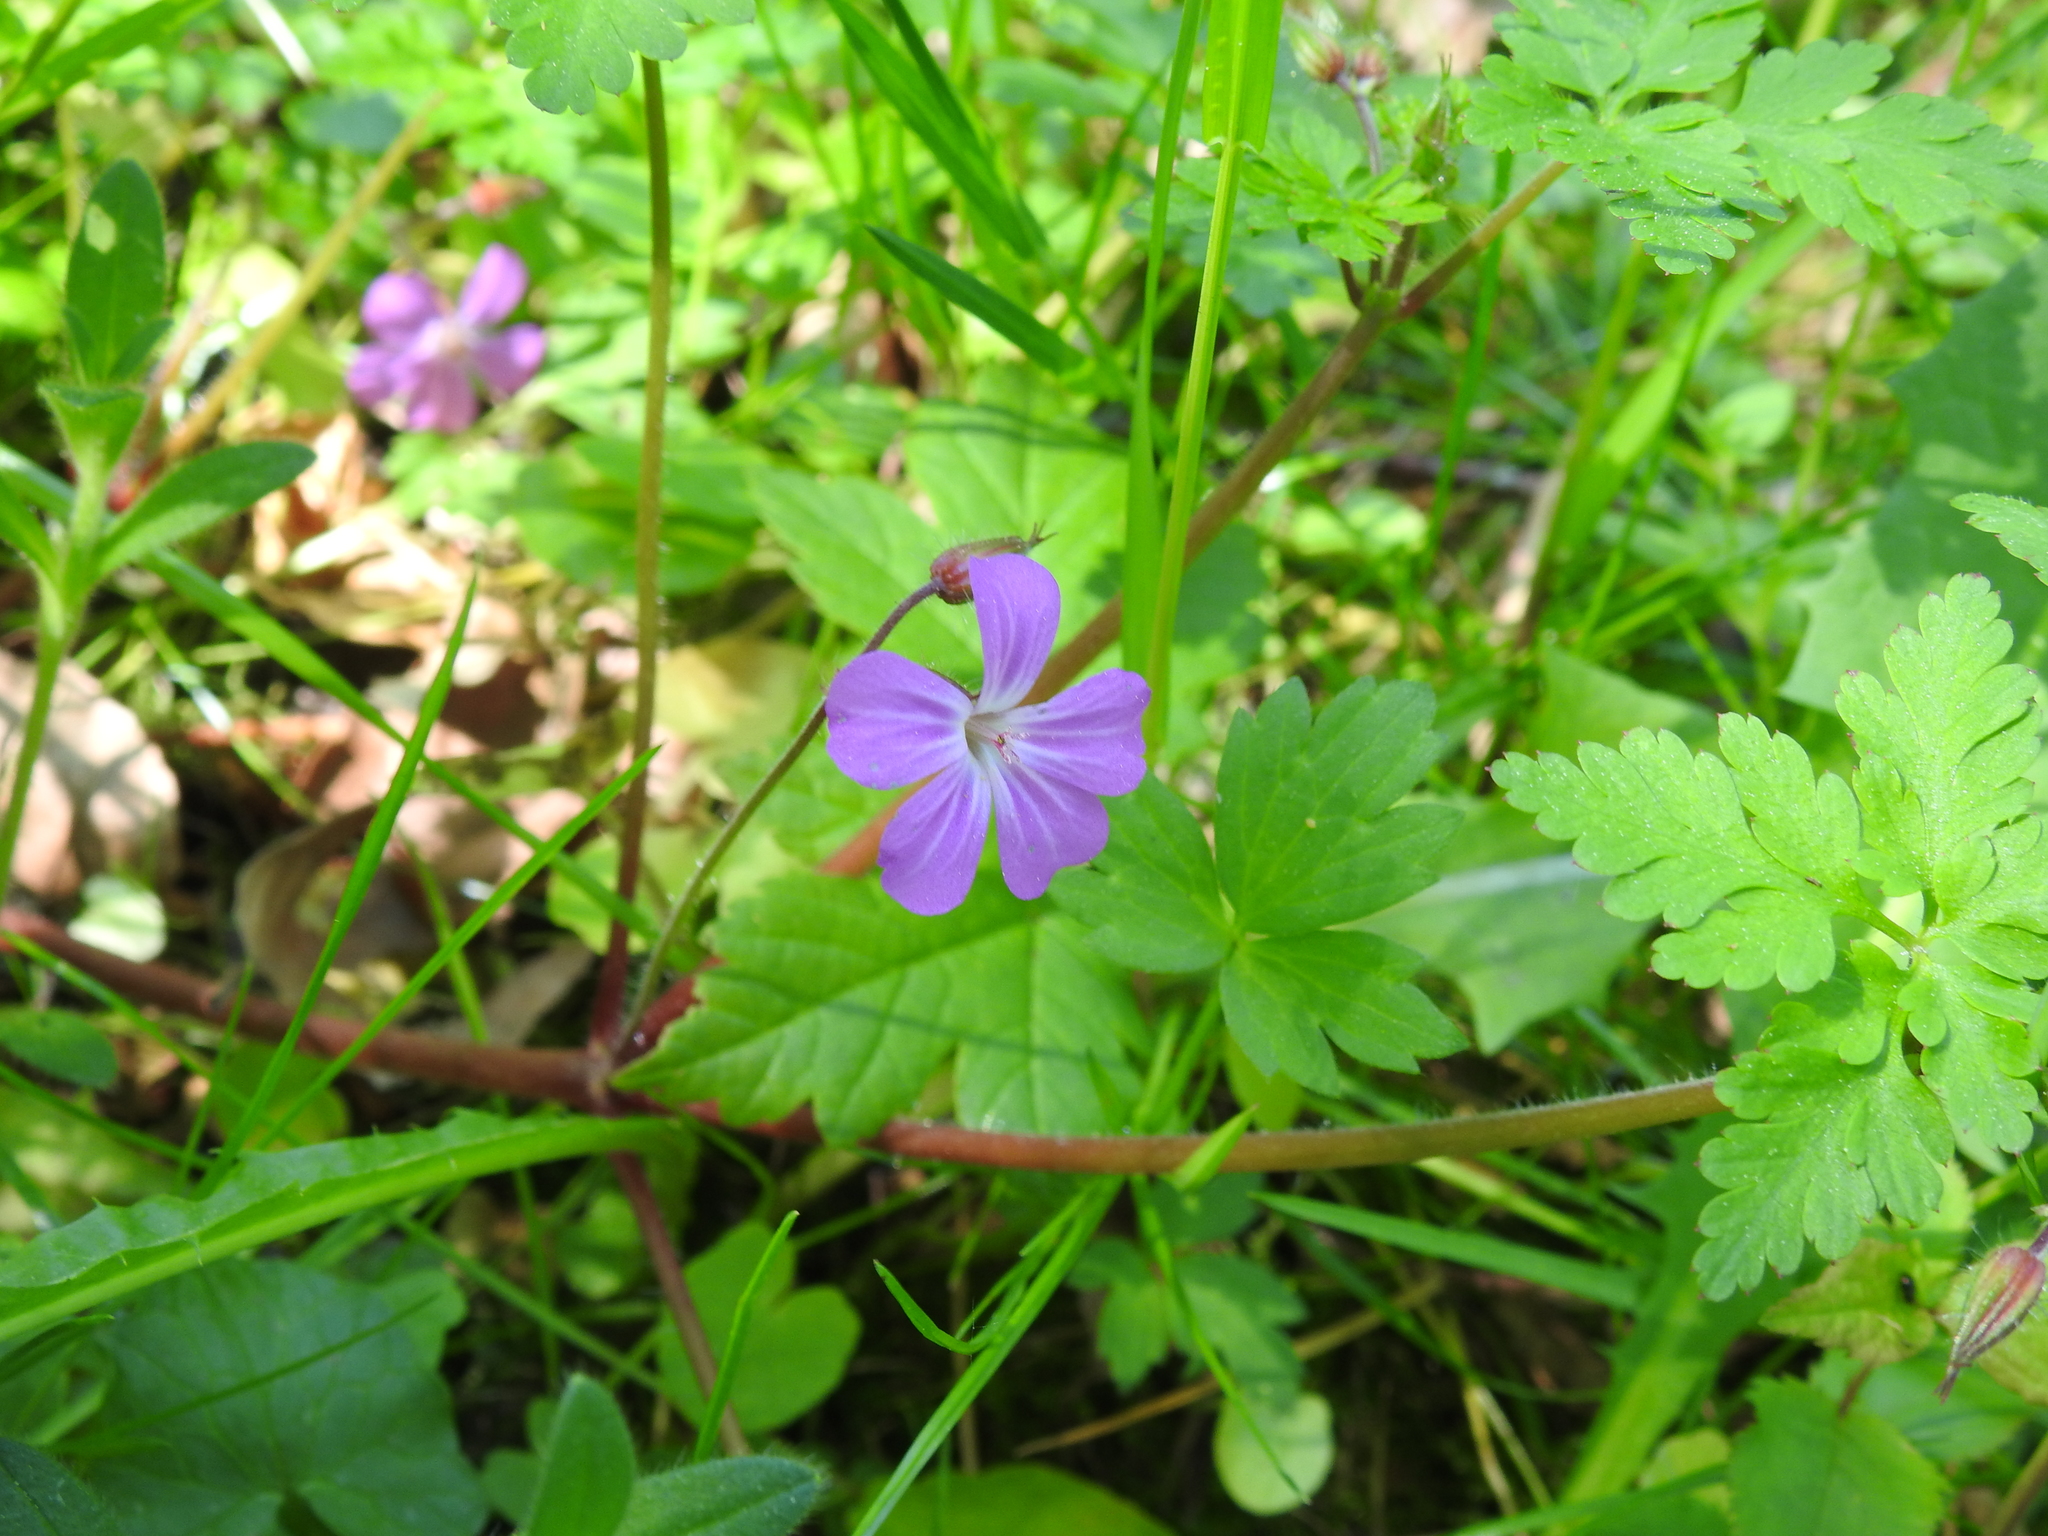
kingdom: Plantae
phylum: Tracheophyta
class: Magnoliopsida
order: Geraniales
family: Geraniaceae
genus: Geranium
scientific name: Geranium robertianum
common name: Herb-robert
